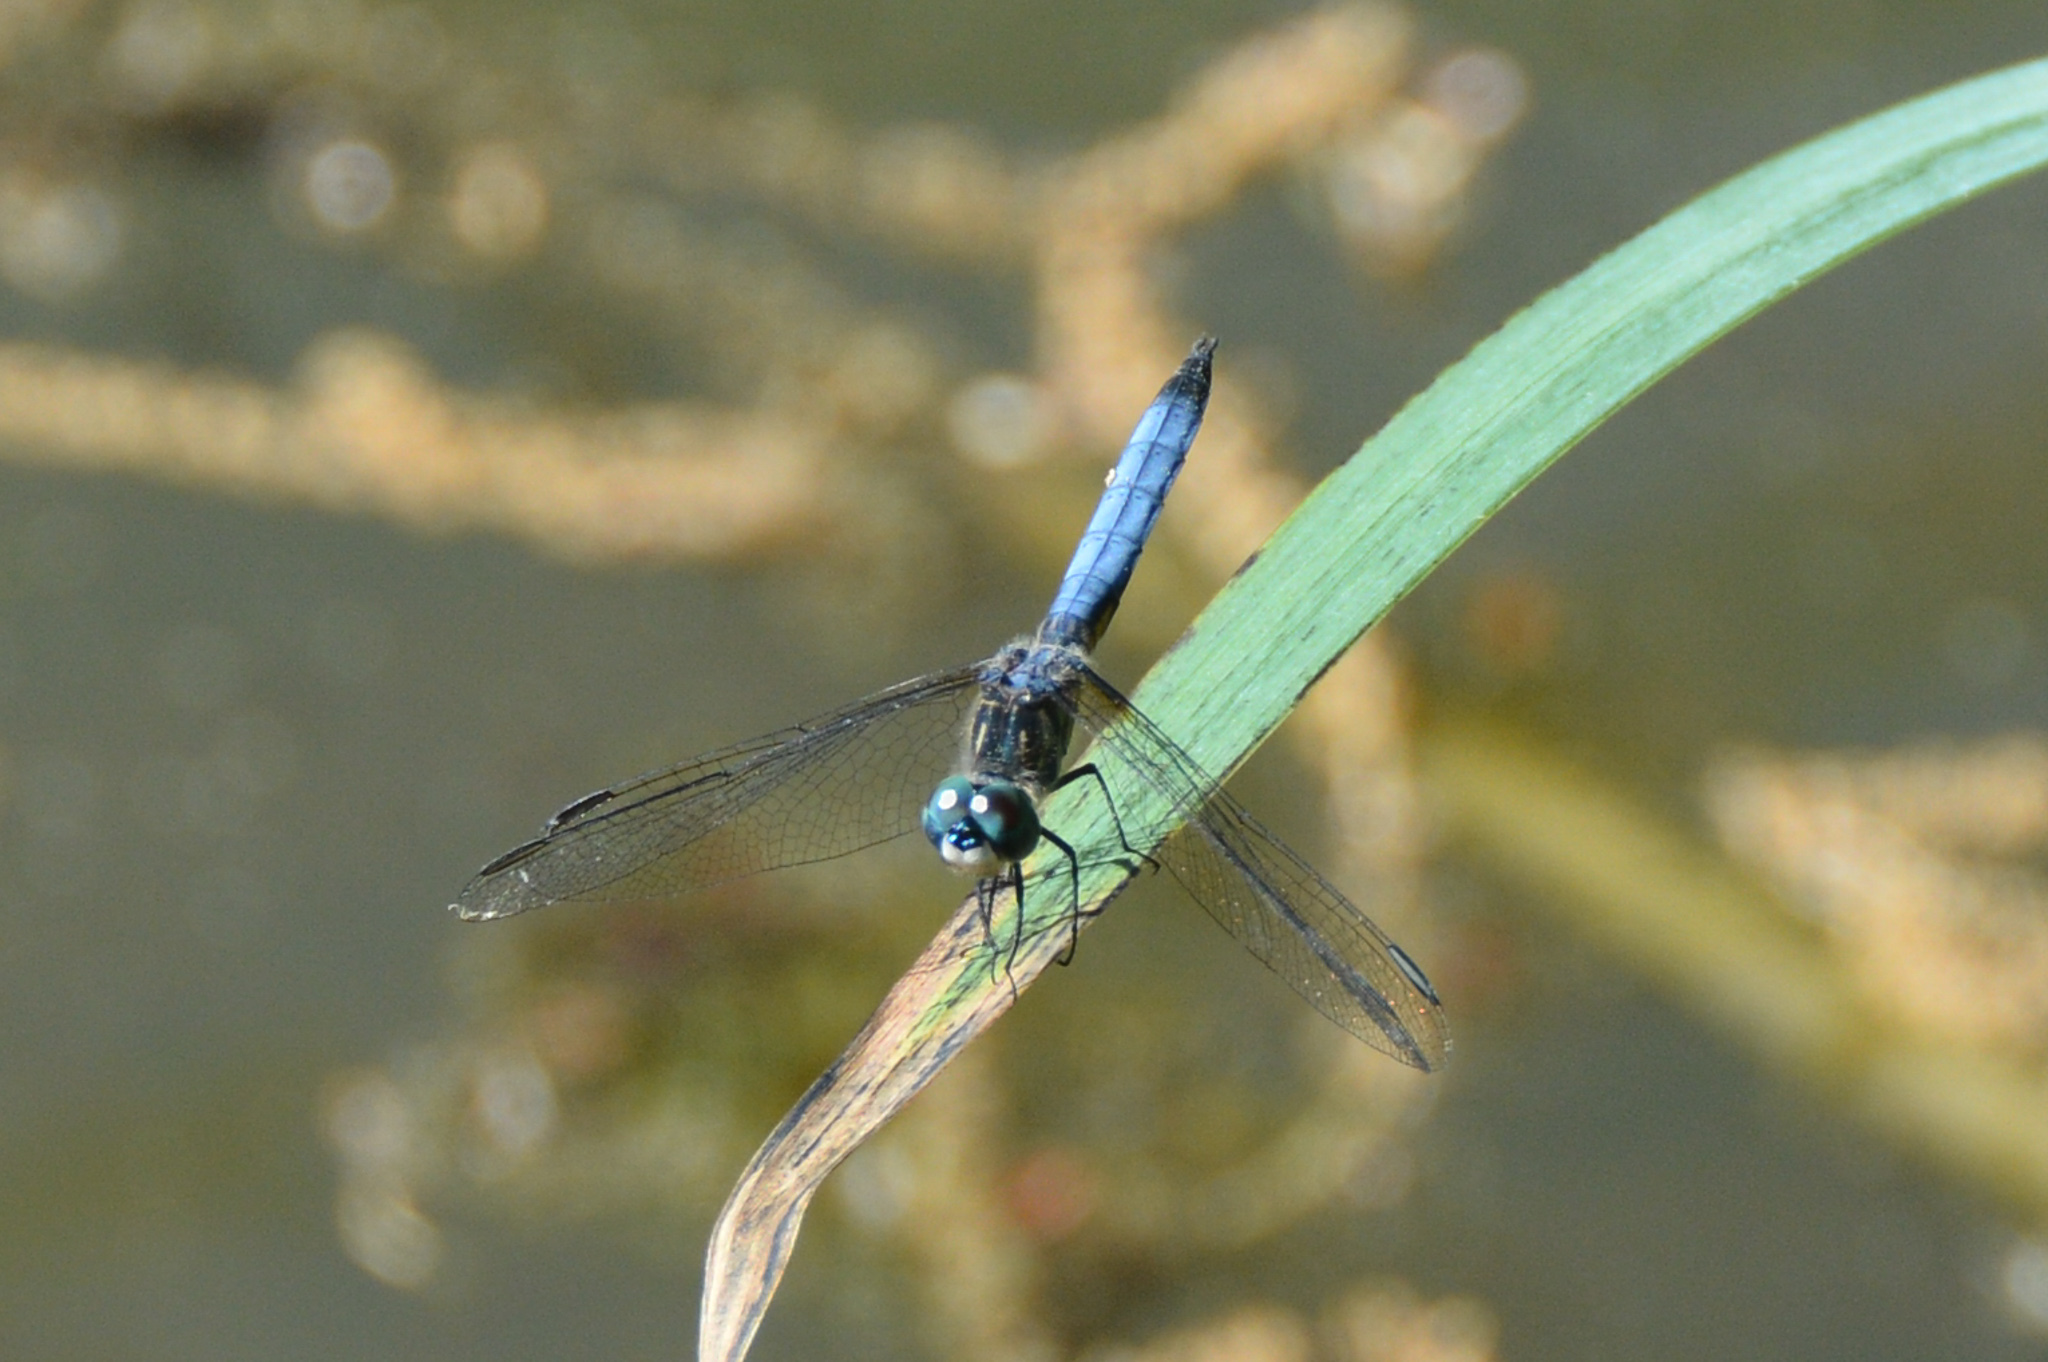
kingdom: Animalia
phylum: Arthropoda
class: Insecta
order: Odonata
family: Libellulidae
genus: Pachydiplax
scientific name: Pachydiplax longipennis
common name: Blue dasher
